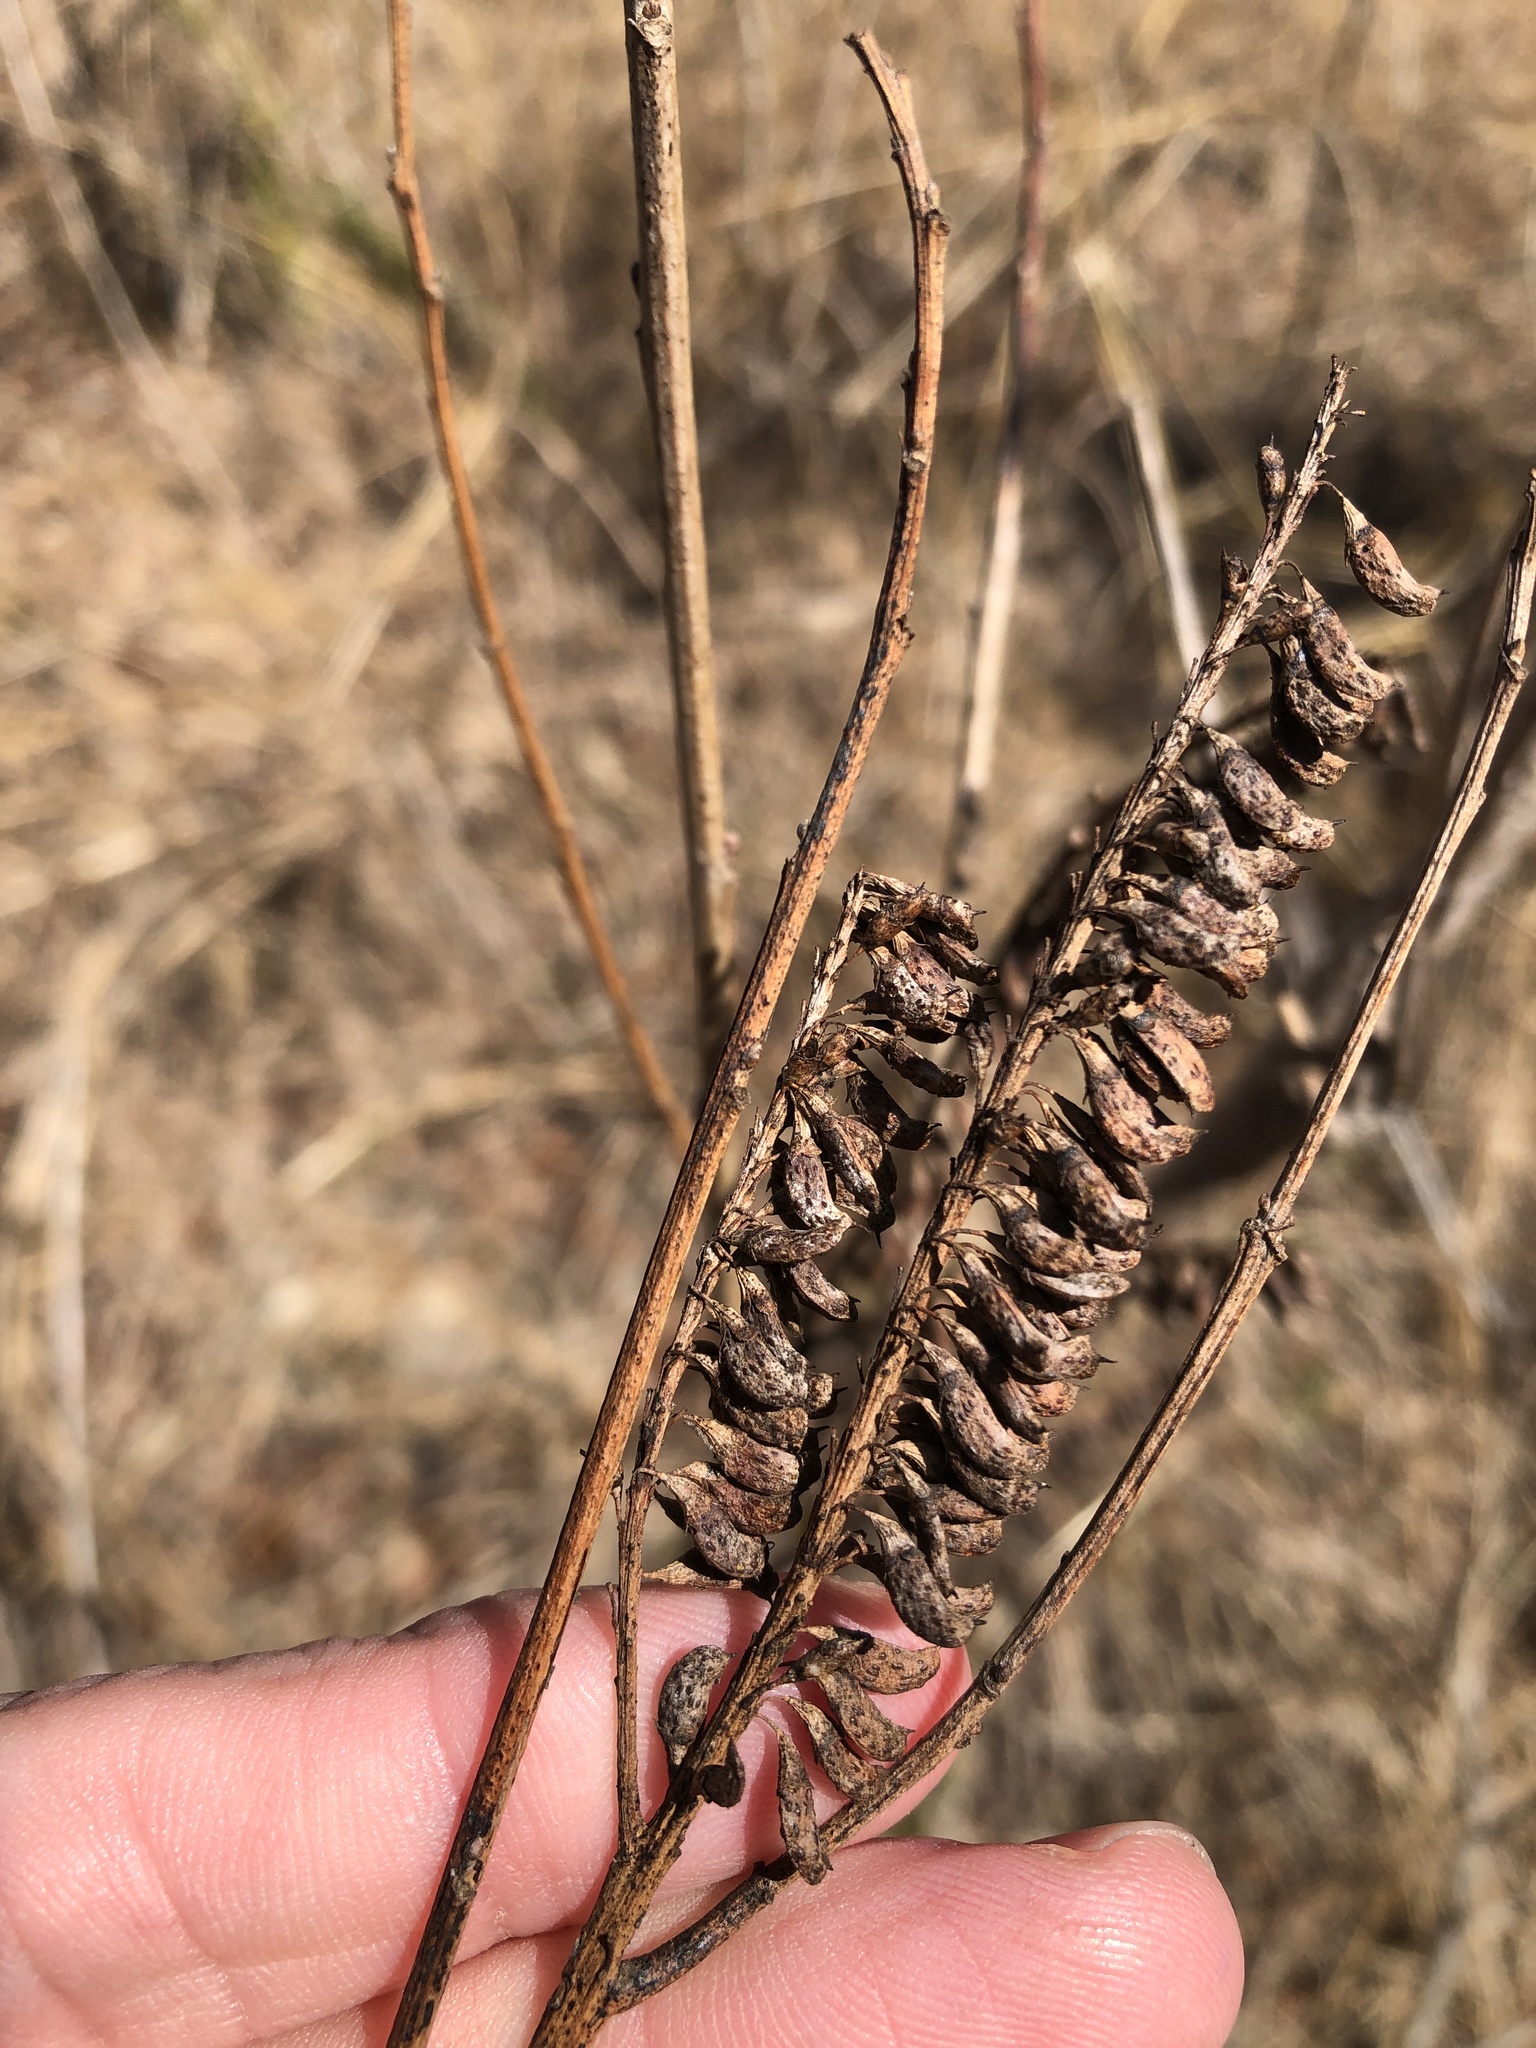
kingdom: Plantae
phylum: Tracheophyta
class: Magnoliopsida
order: Fabales
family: Fabaceae
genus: Amorpha
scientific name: Amorpha fruticosa
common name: False indigo
